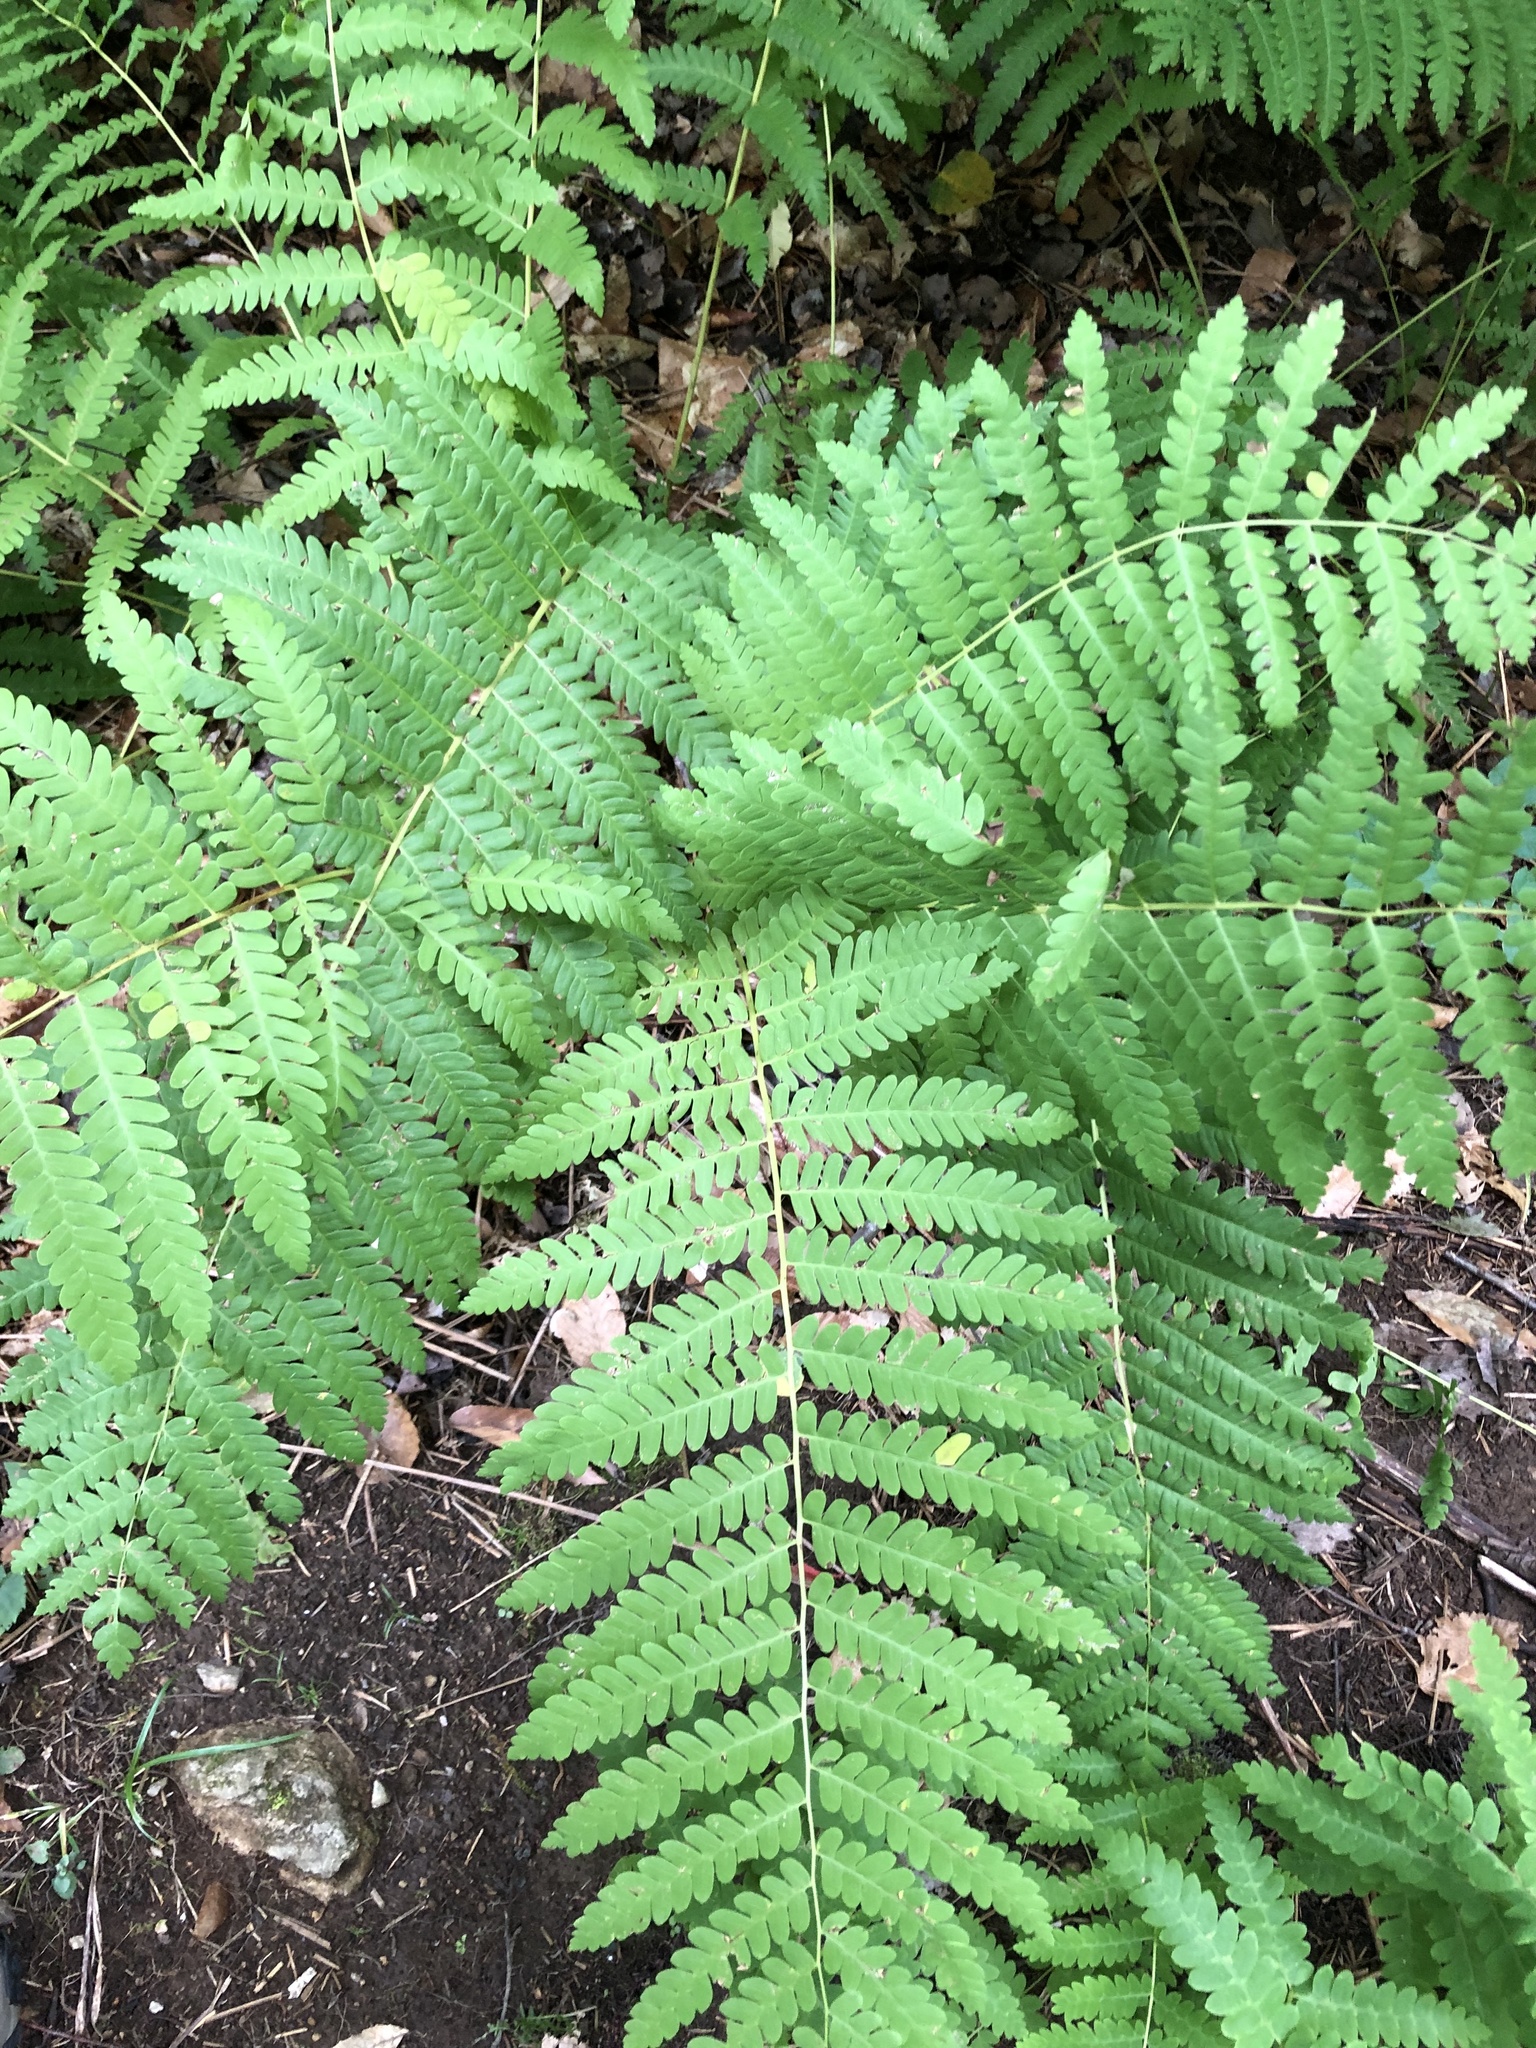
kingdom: Plantae
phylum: Tracheophyta
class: Polypodiopsida
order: Osmundales
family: Osmundaceae
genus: Claytosmunda
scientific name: Claytosmunda claytoniana
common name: Clayton's fern
